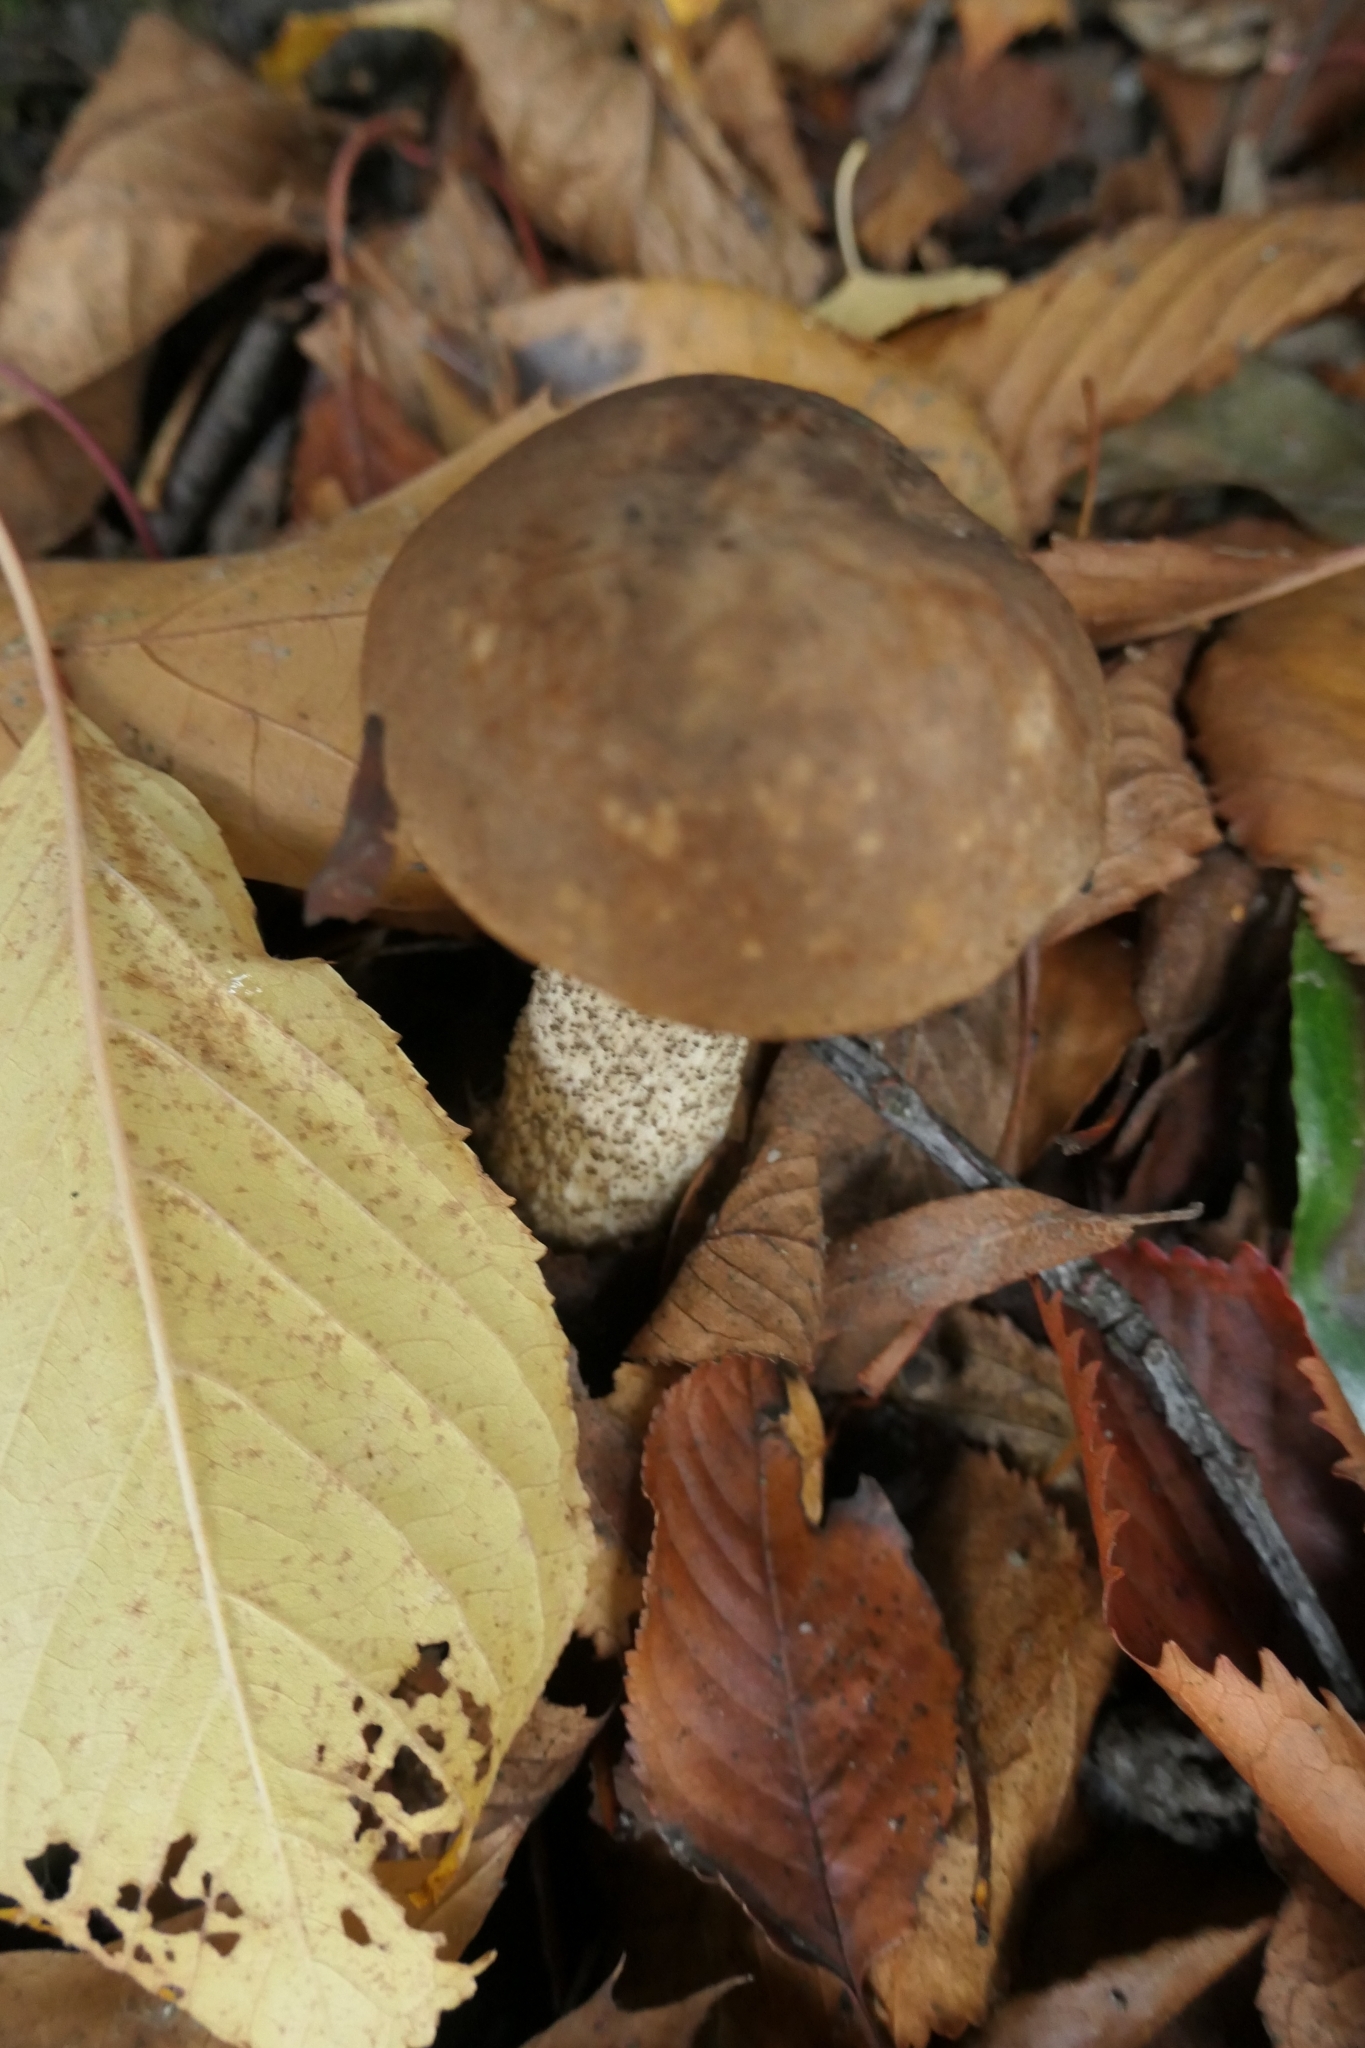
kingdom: Fungi
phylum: Basidiomycota
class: Agaricomycetes
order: Boletales
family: Boletaceae
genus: Leccinum
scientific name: Leccinum scabrum
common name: Blushing bolete
